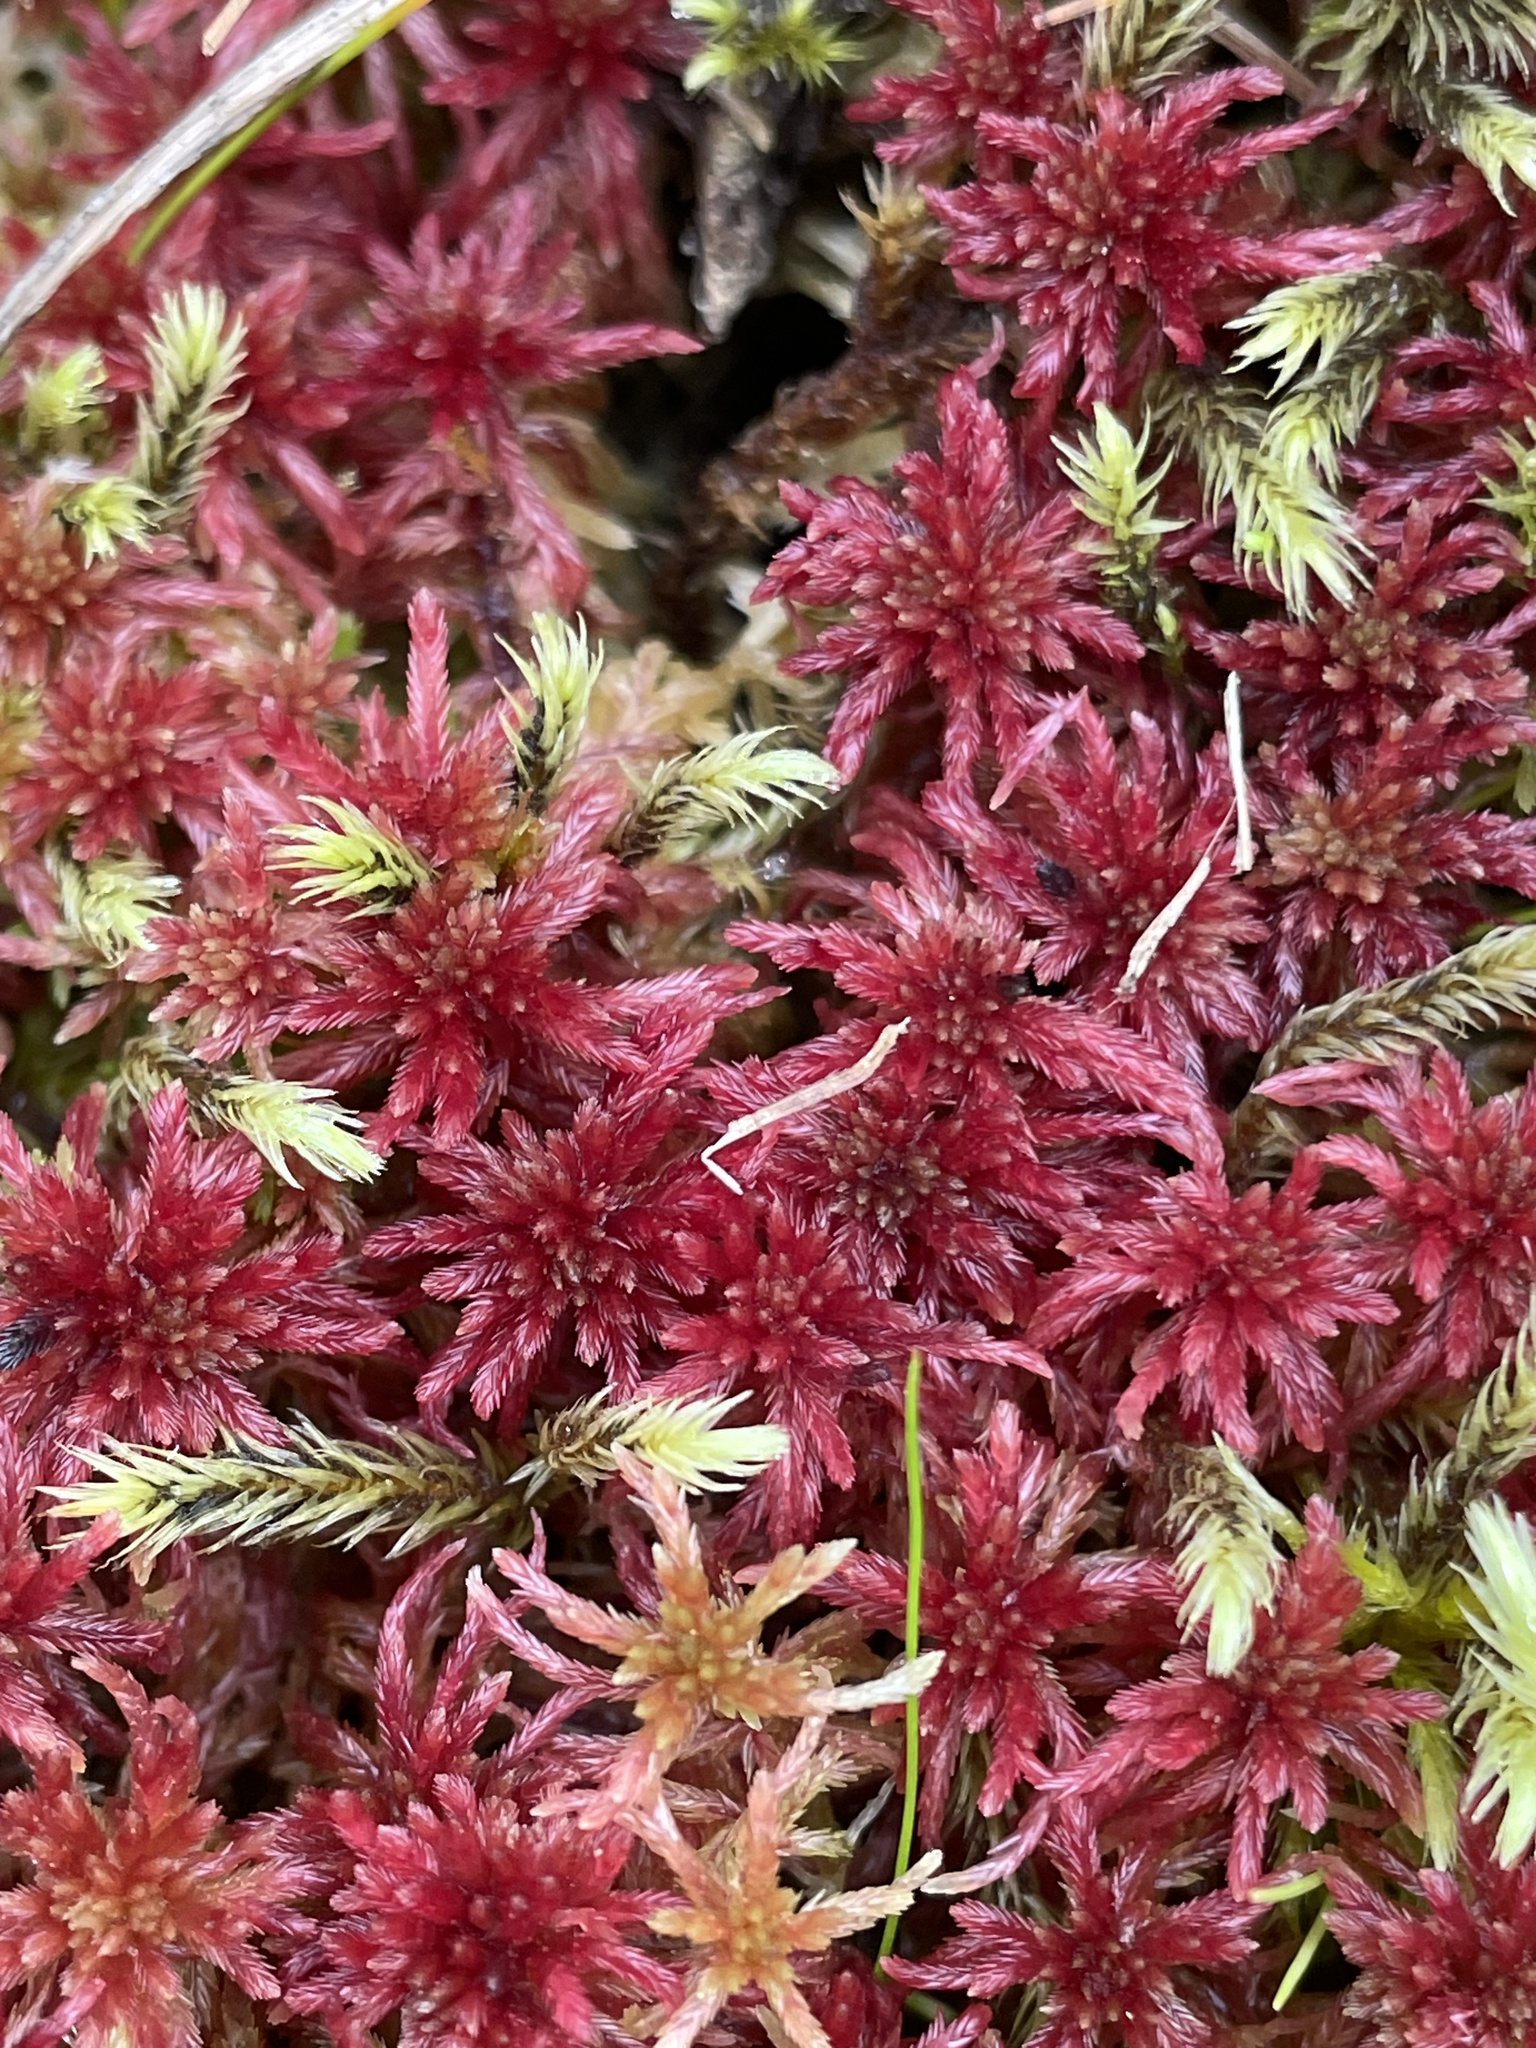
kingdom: Plantae
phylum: Bryophyta
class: Sphagnopsida
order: Sphagnales
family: Sphagnaceae
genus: Sphagnum
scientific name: Sphagnum warnstorfii
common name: Warnstorf's peat moss
